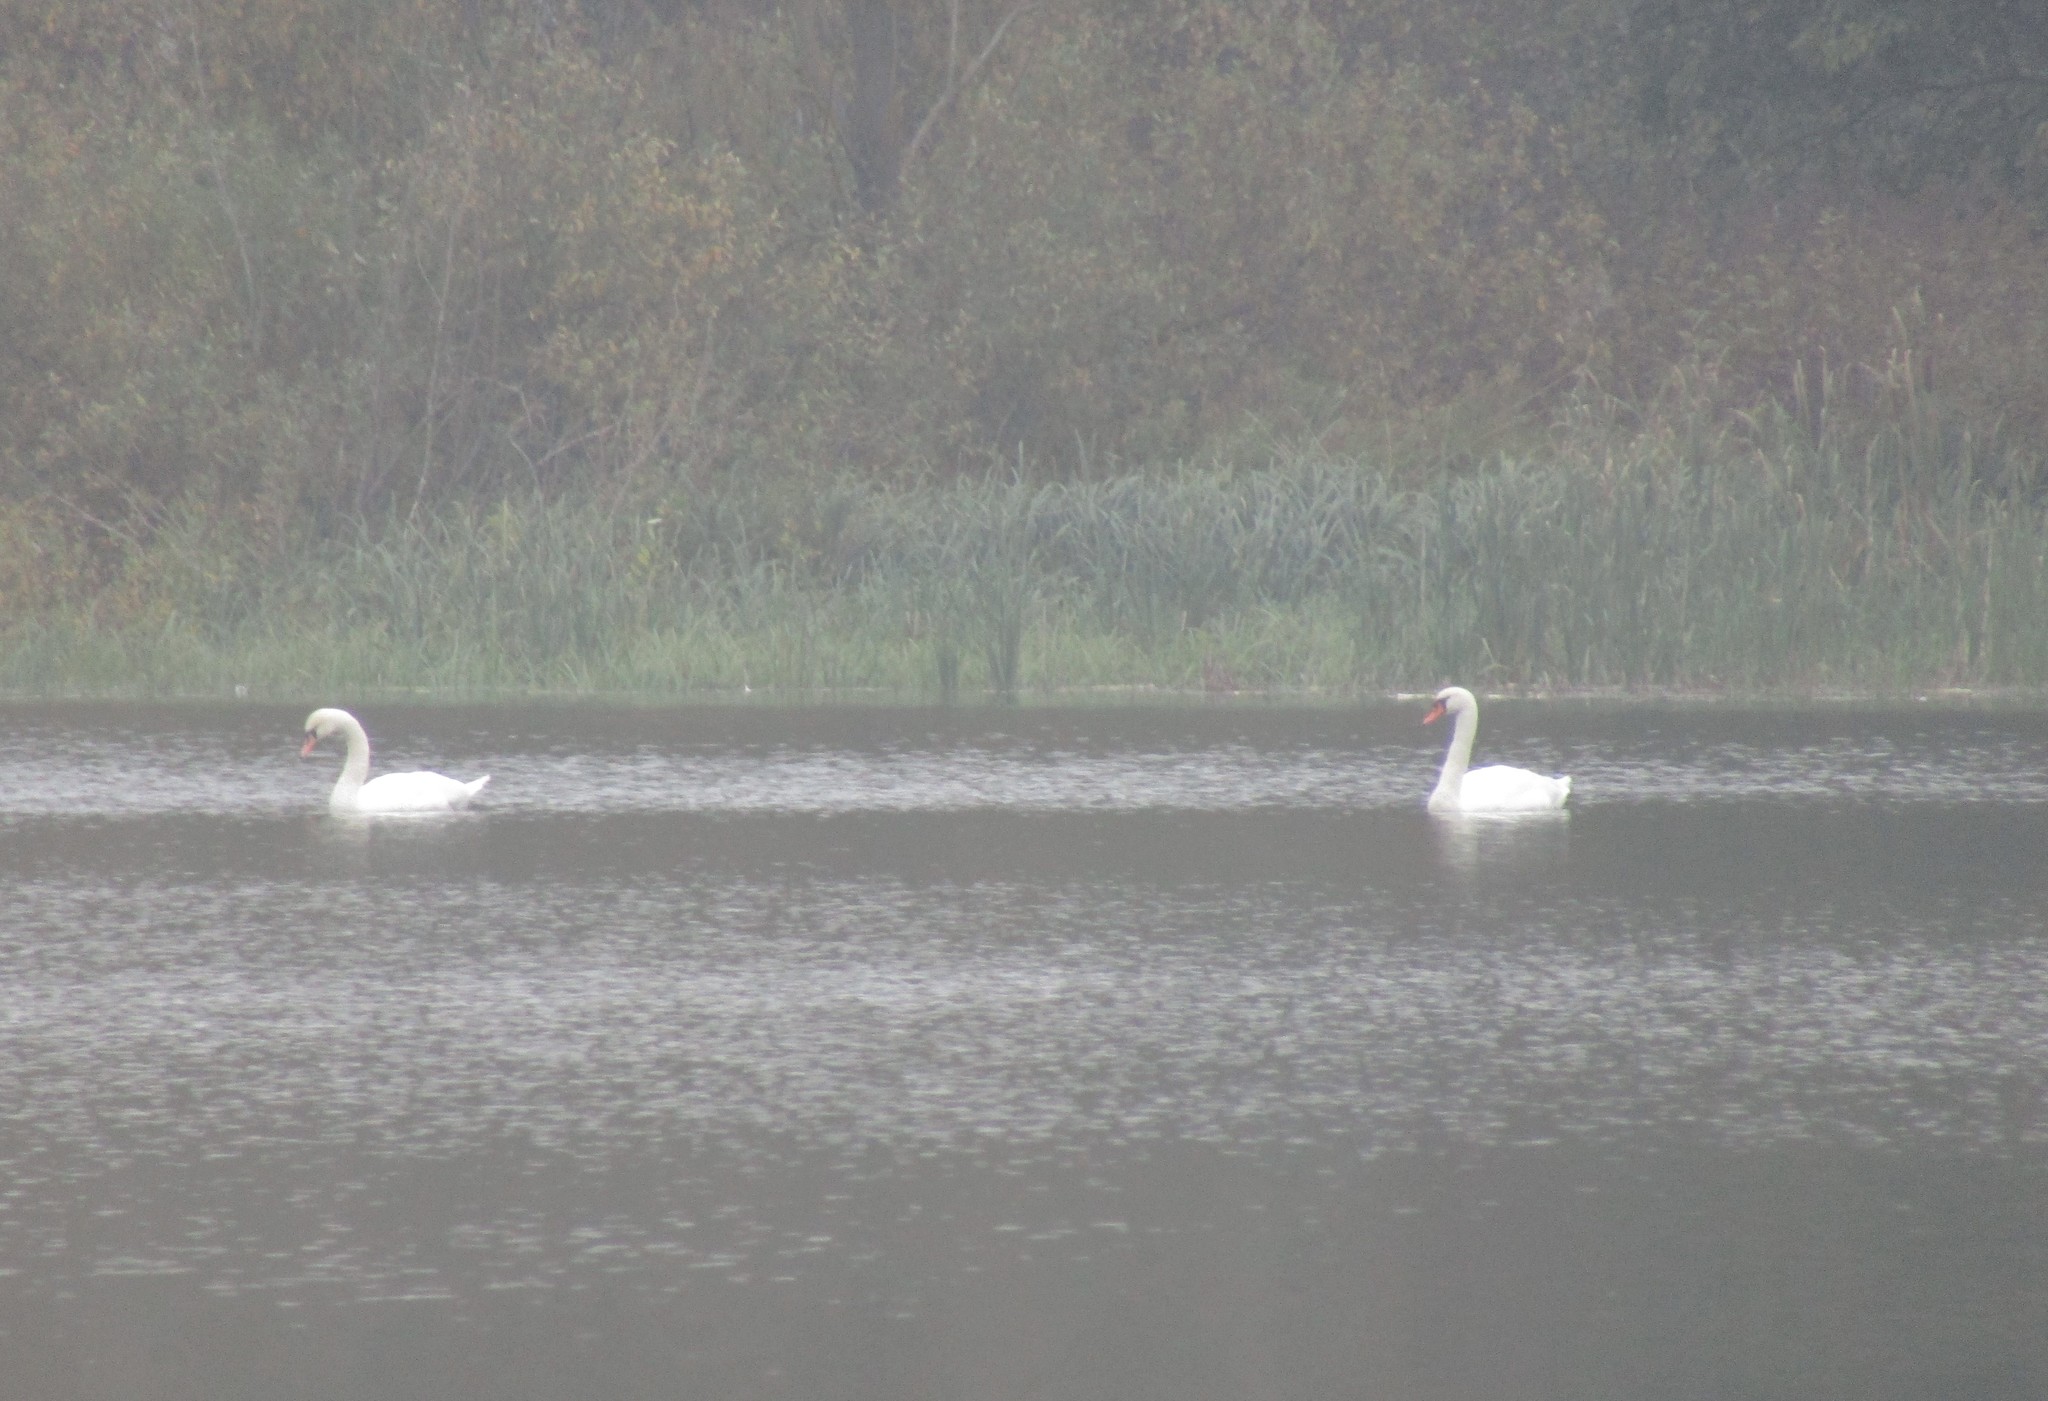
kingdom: Animalia
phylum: Chordata
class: Aves
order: Anseriformes
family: Anatidae
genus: Cygnus
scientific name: Cygnus olor
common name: Mute swan
